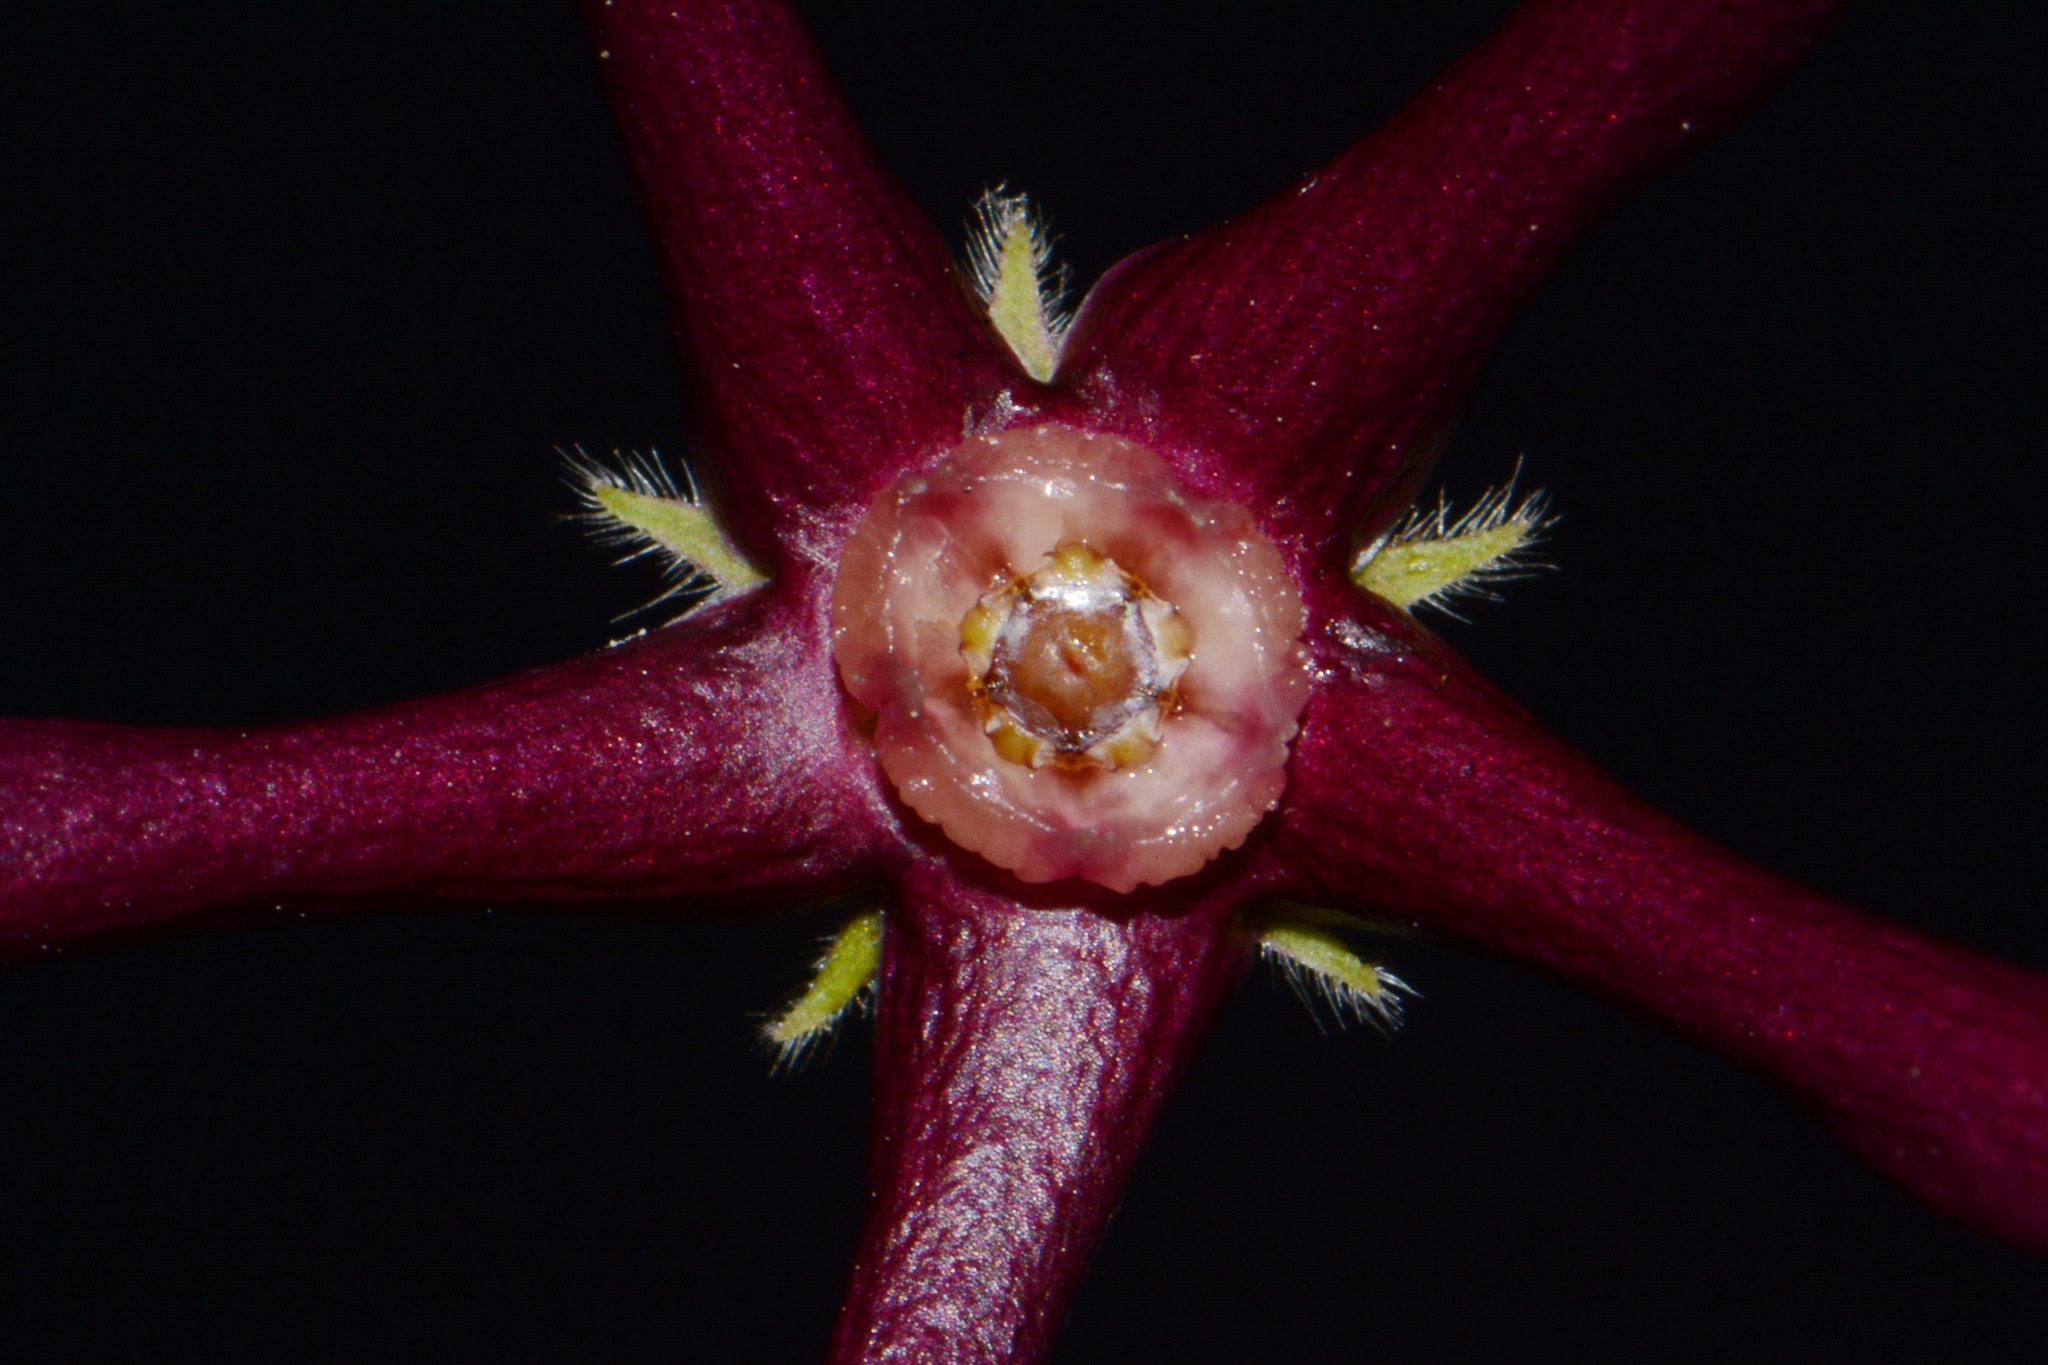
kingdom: Plantae
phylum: Tracheophyta
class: Magnoliopsida
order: Gentianales
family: Apocynaceae
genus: Matelea
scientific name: Matelea obliqua
